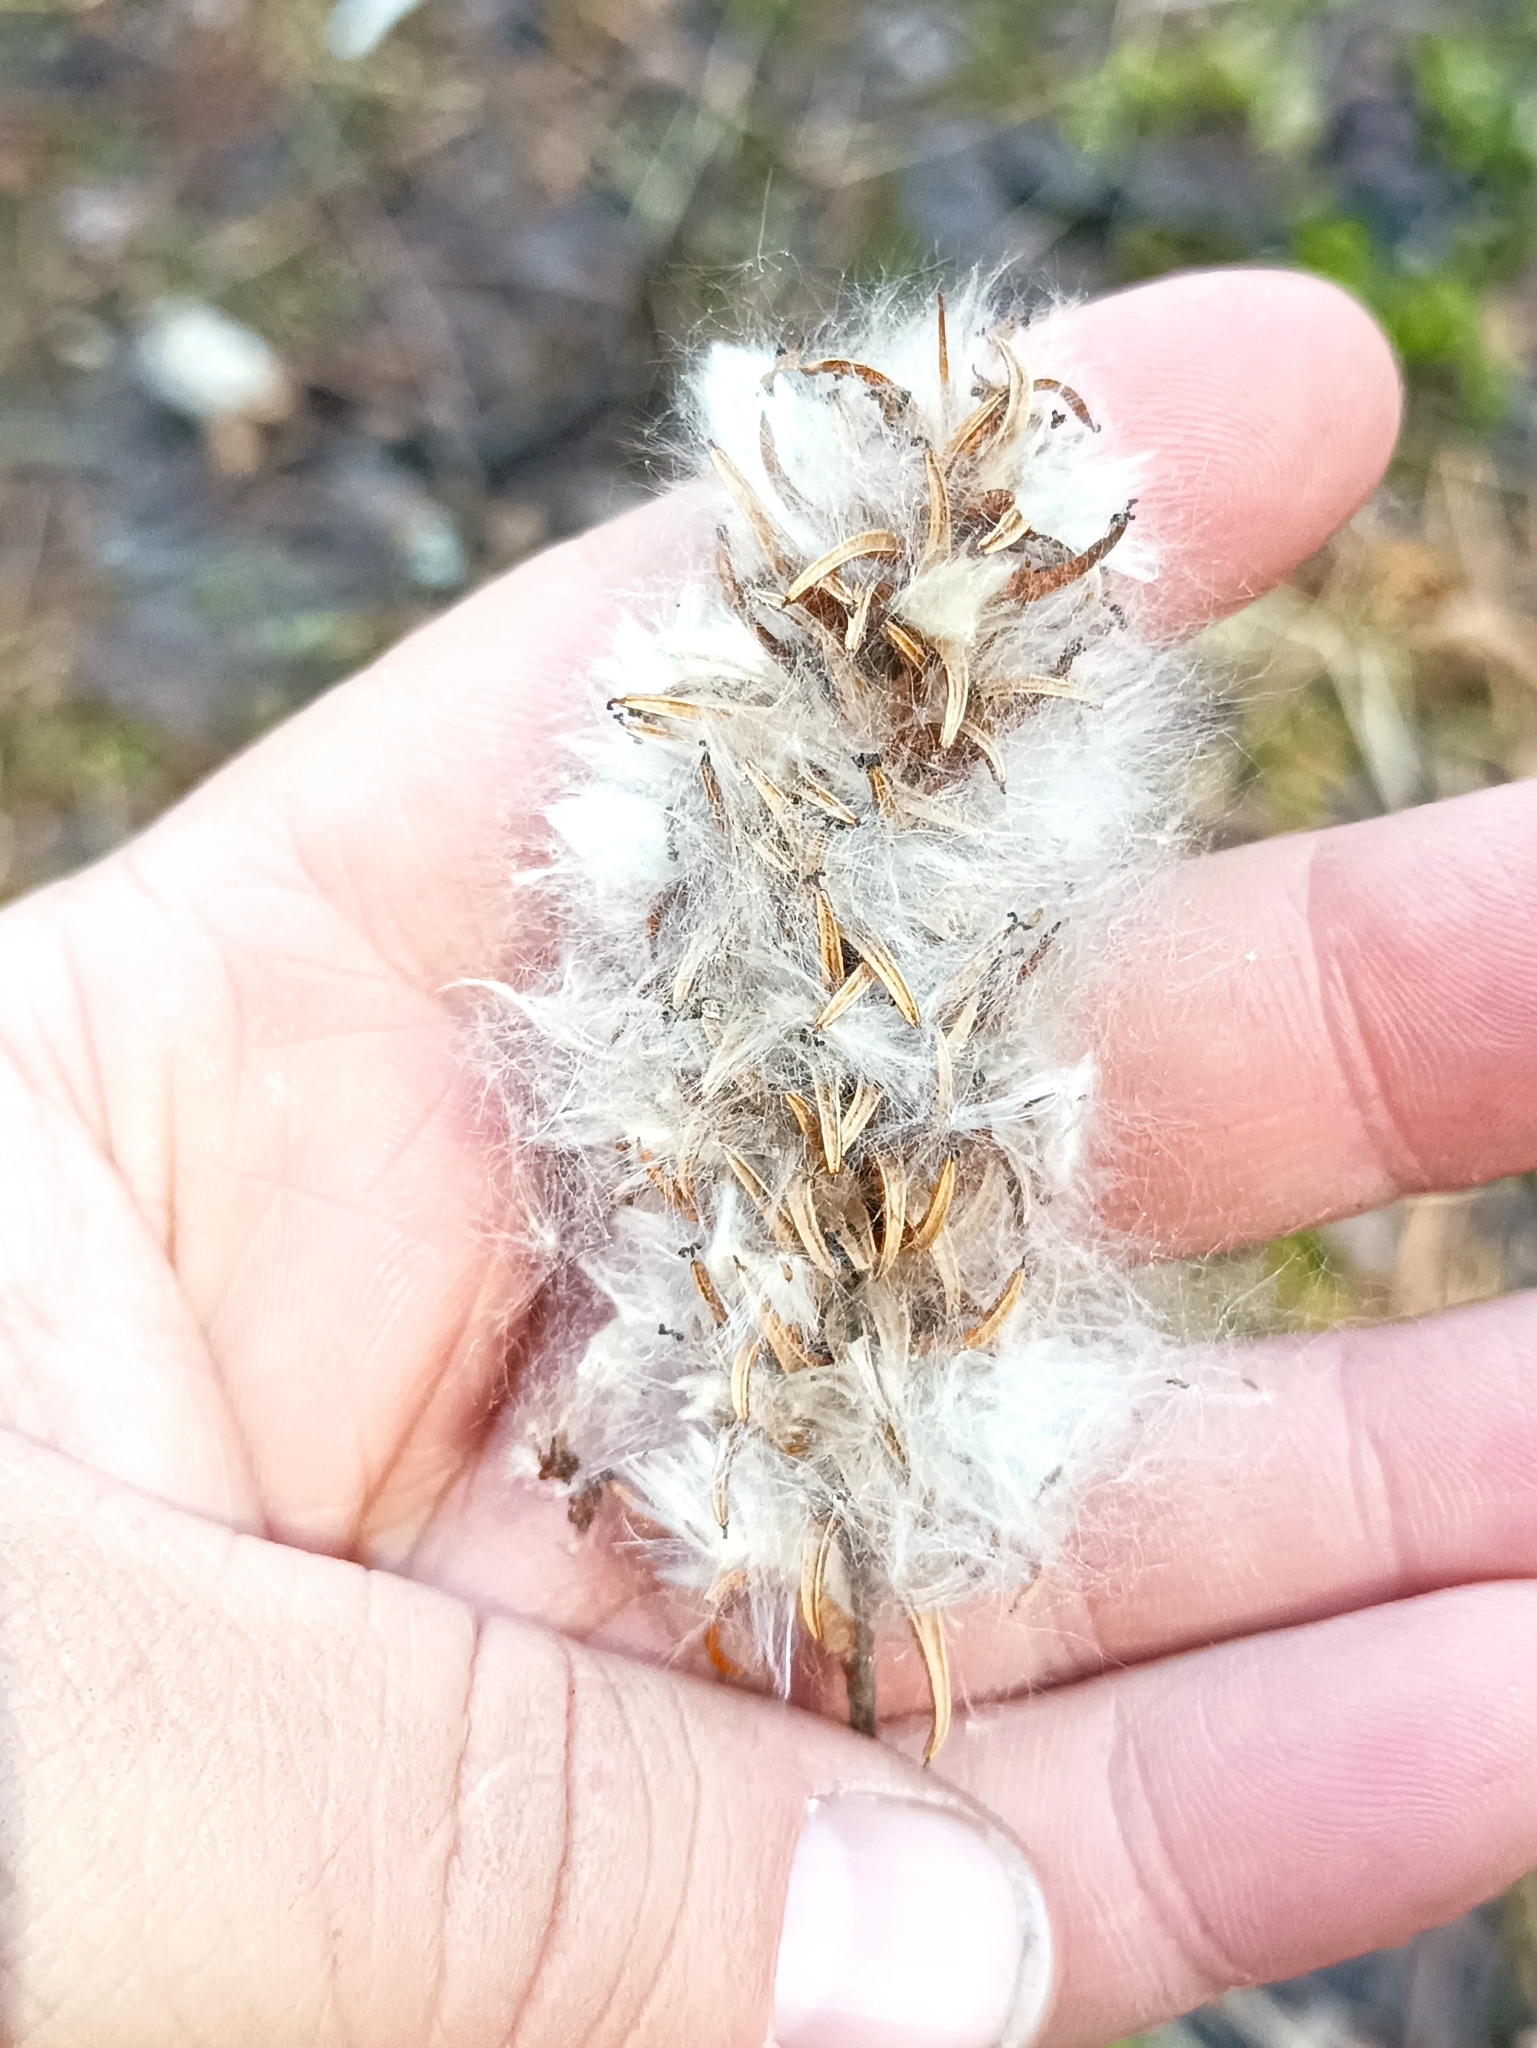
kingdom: Plantae
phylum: Tracheophyta
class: Magnoliopsida
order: Malpighiales
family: Salicaceae
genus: Salix
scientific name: Salix pentandra
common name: Bay willow
